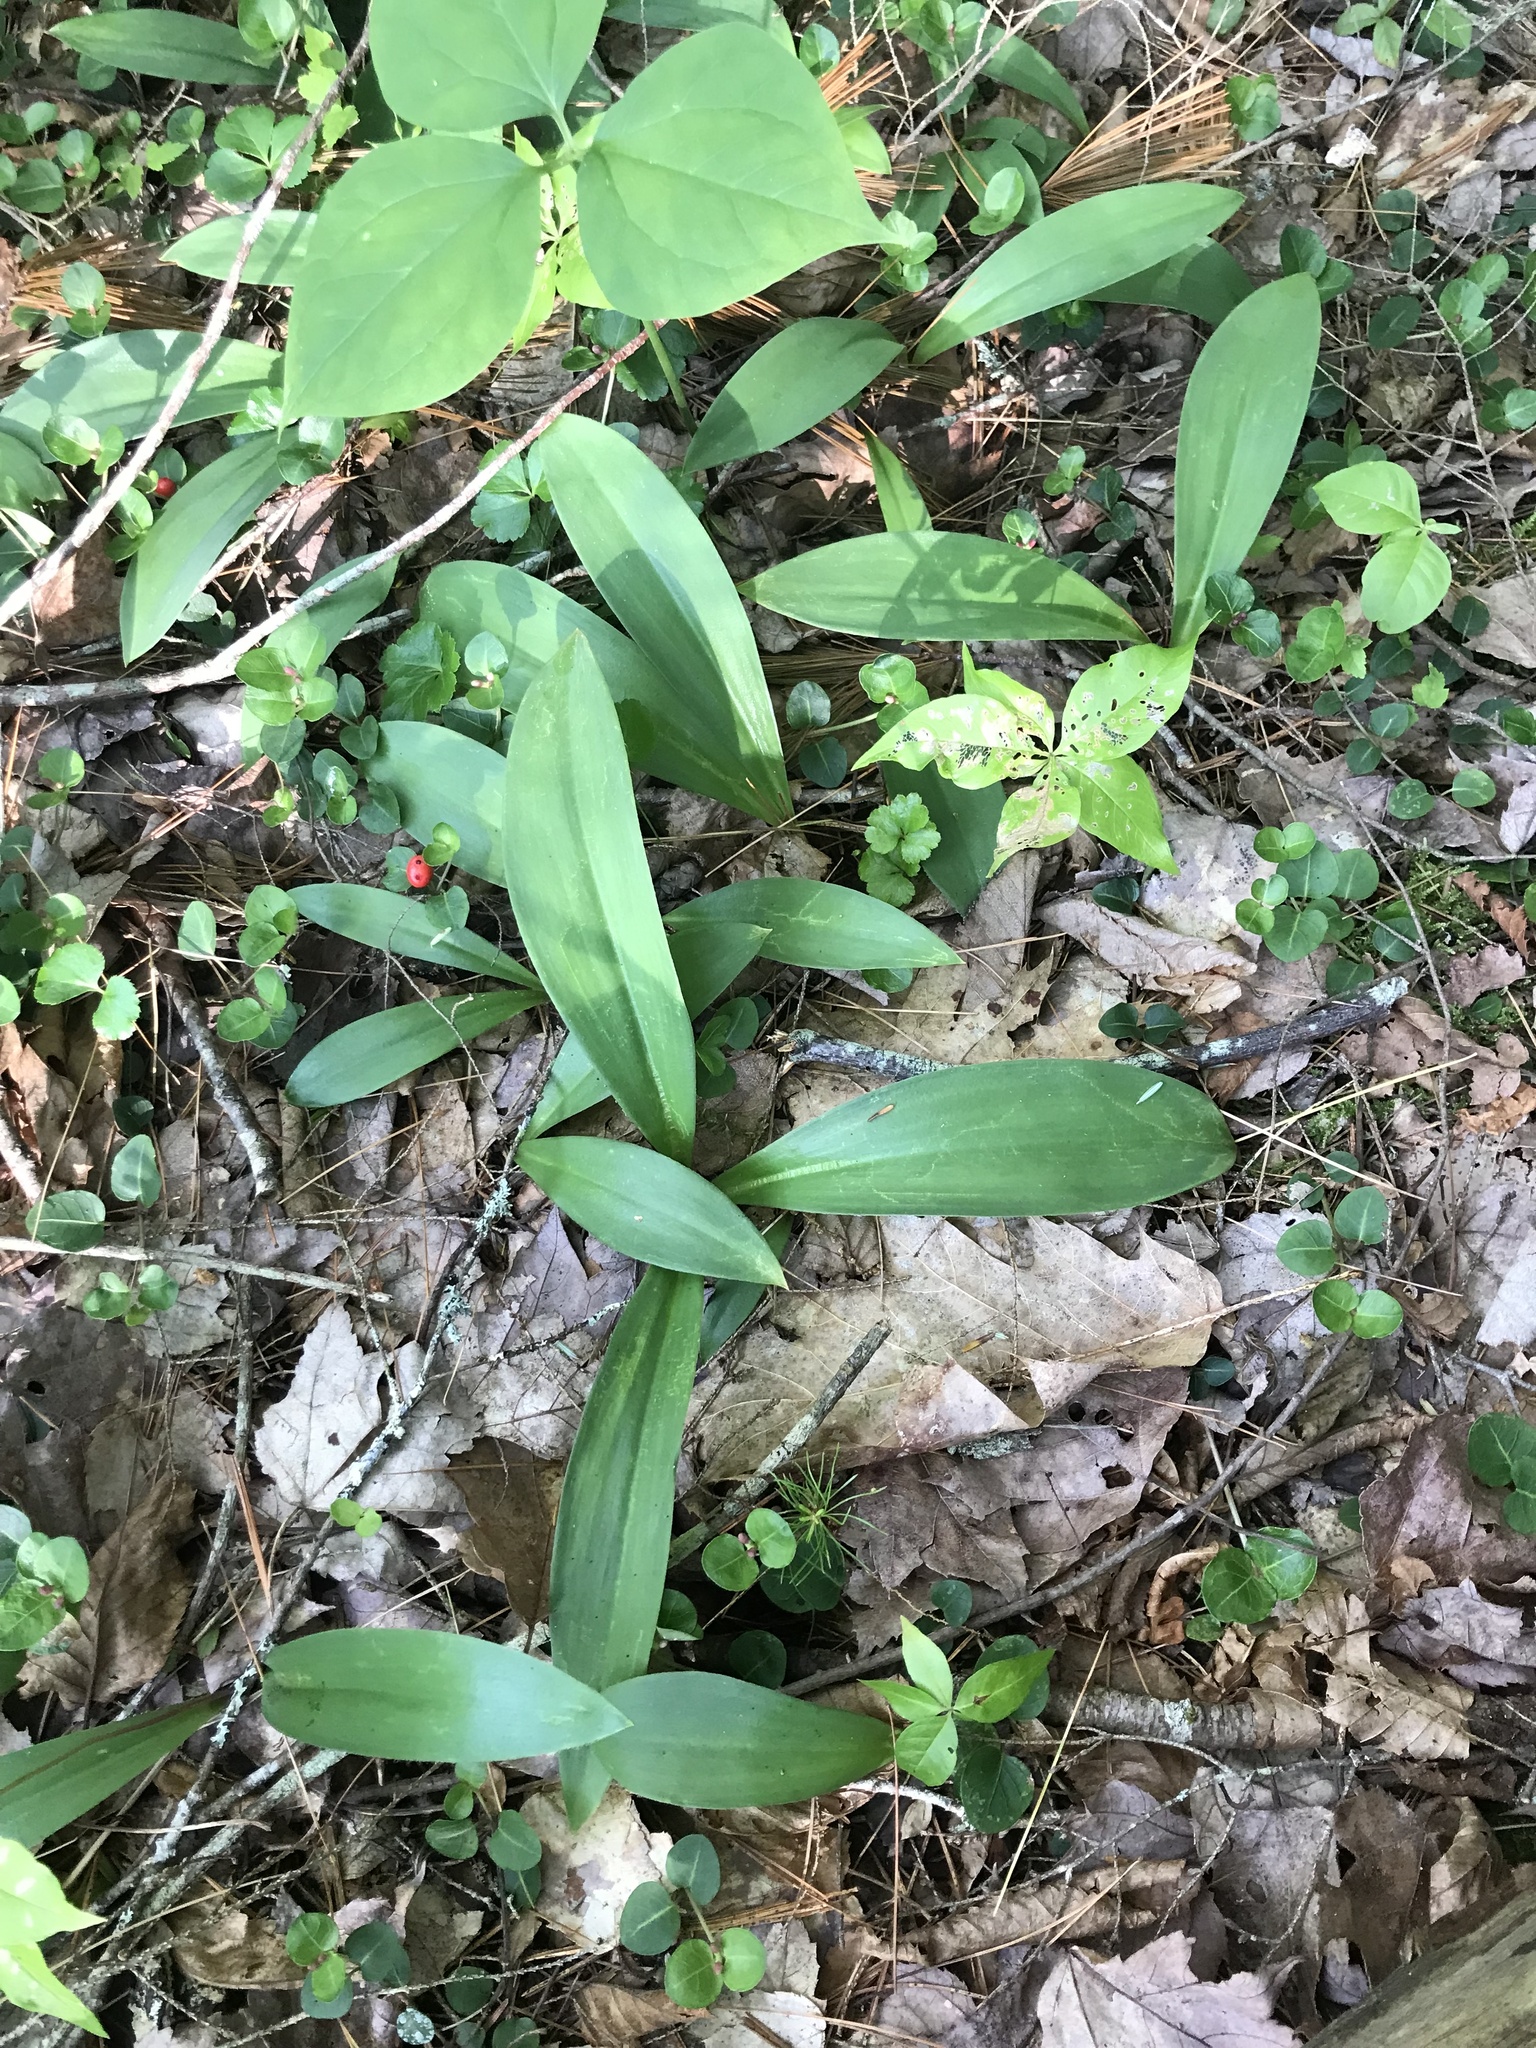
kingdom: Plantae
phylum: Tracheophyta
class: Liliopsida
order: Liliales
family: Liliaceae
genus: Clintonia
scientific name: Clintonia borealis
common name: Yellow clintonia
